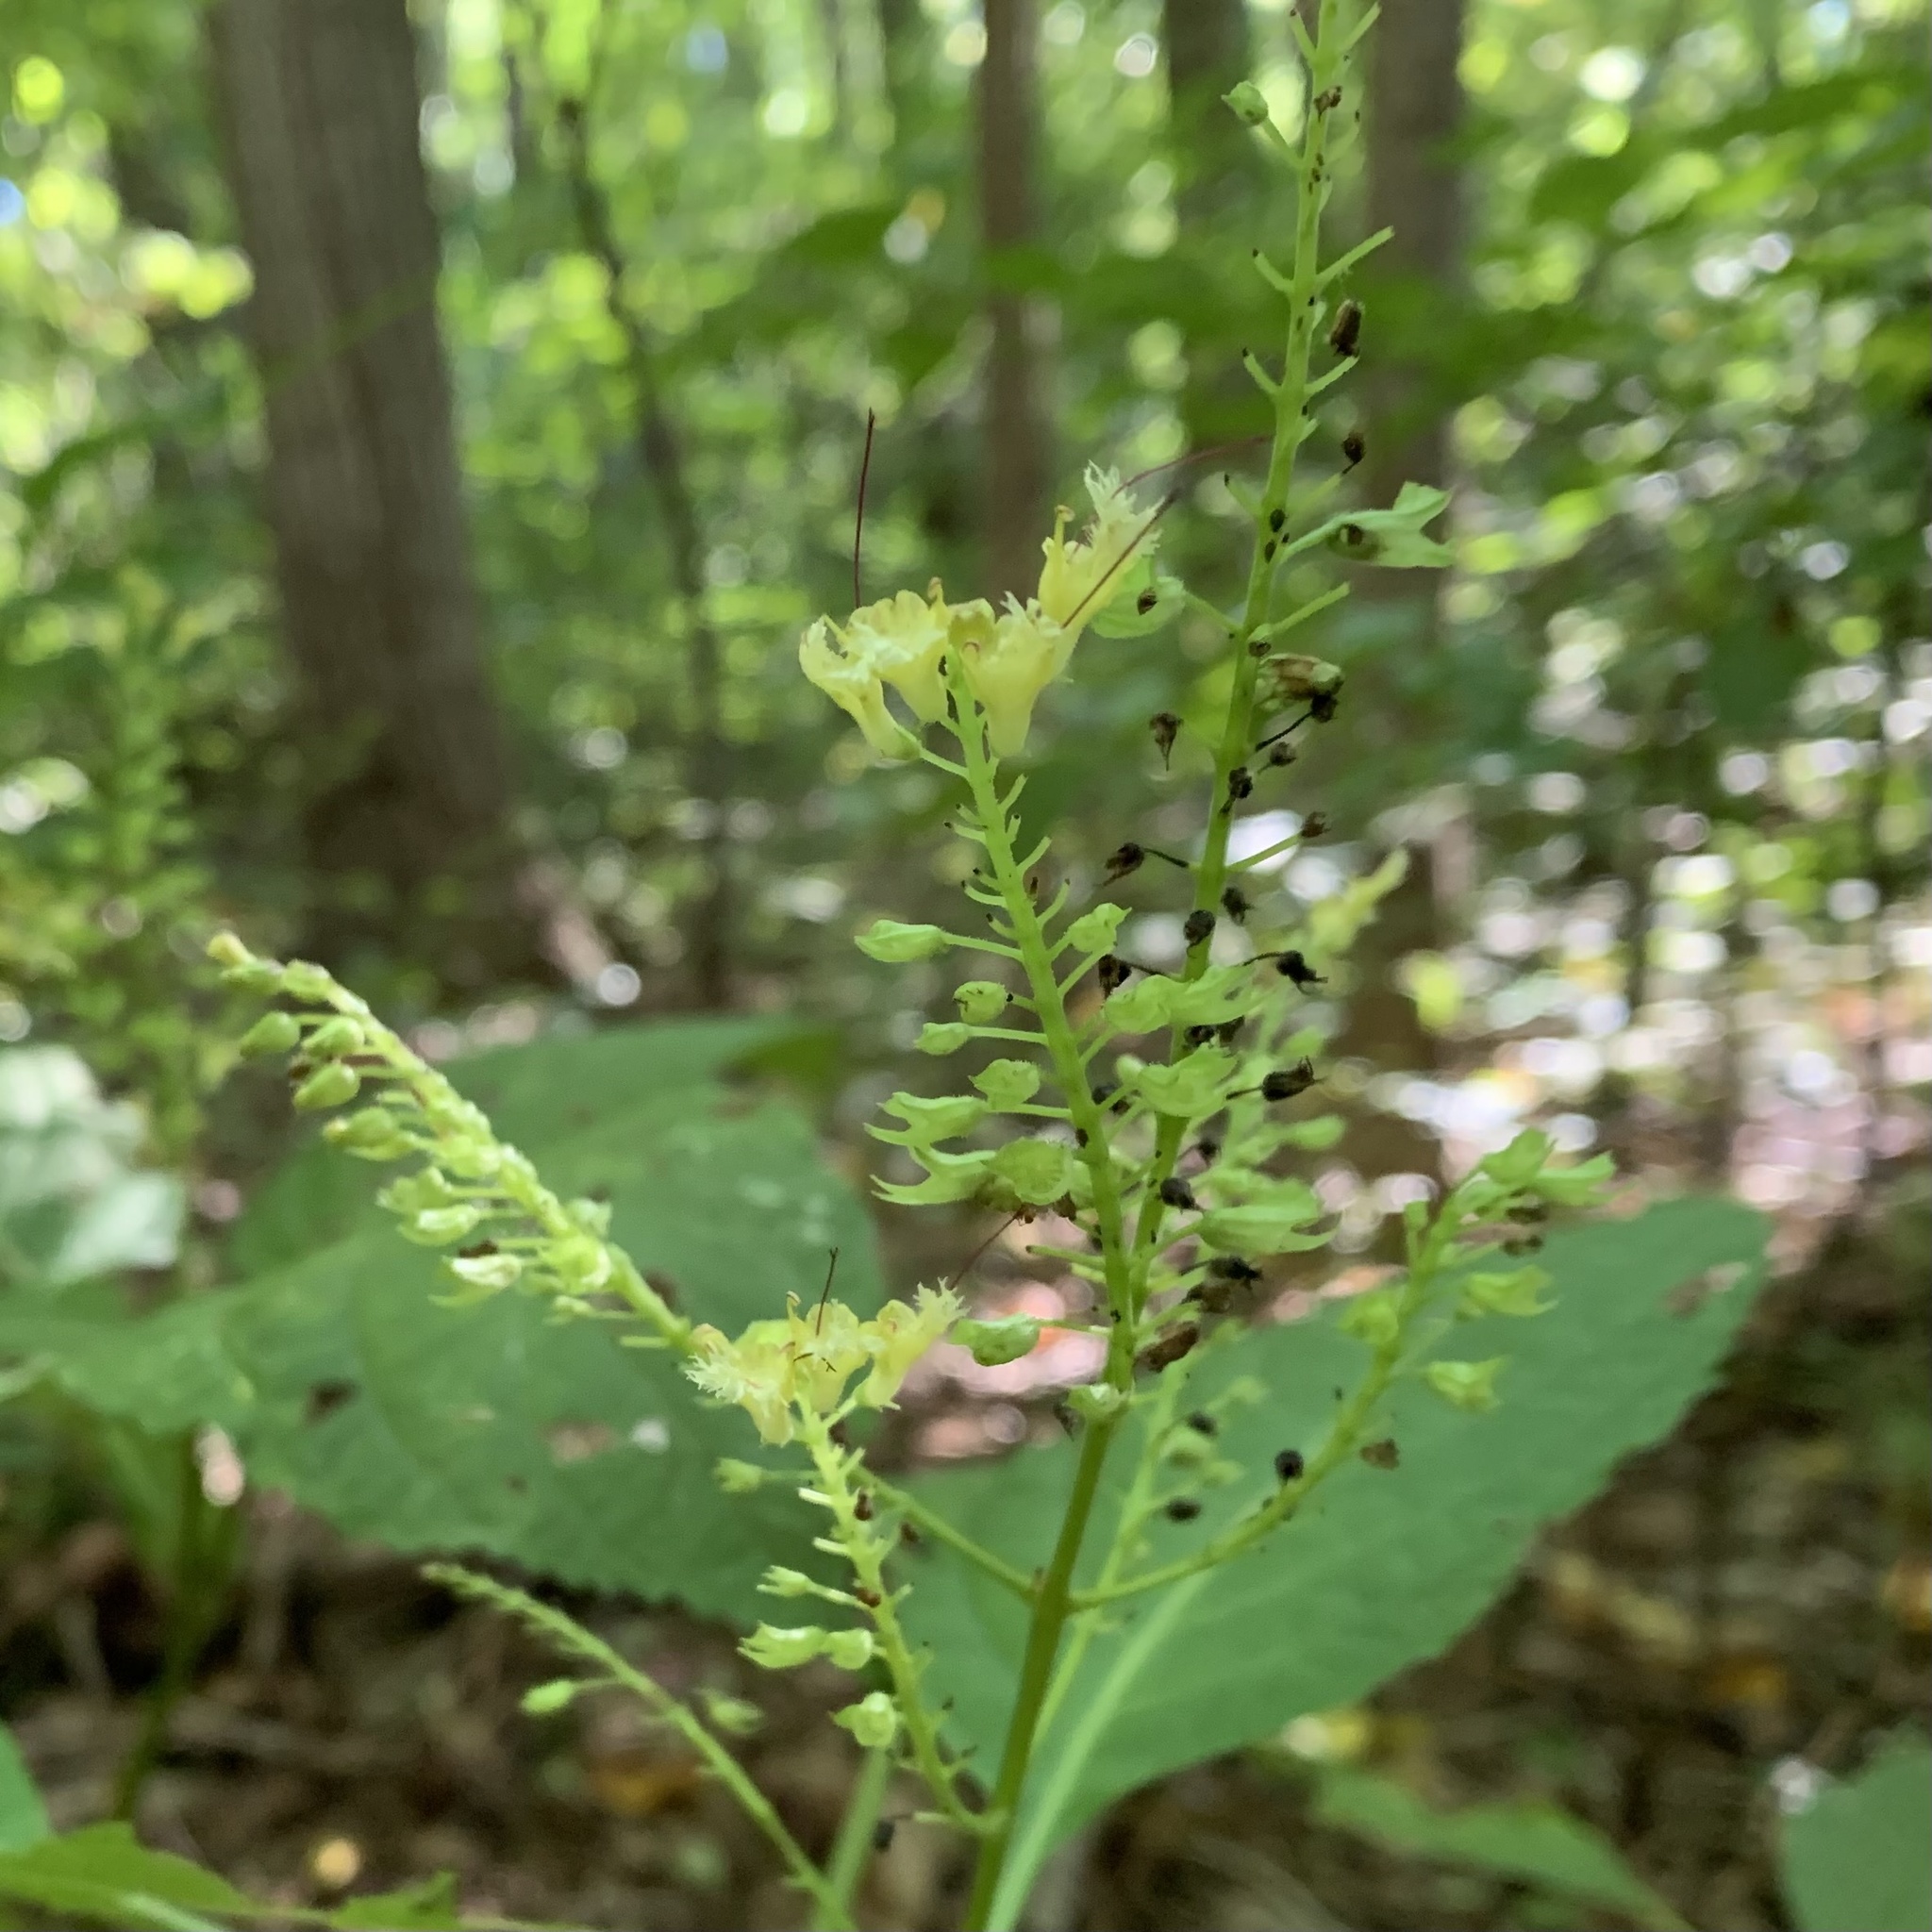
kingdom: Plantae
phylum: Tracheophyta
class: Magnoliopsida
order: Lamiales
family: Lamiaceae
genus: Collinsonia
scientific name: Collinsonia canadensis
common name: Northern horsebalm
